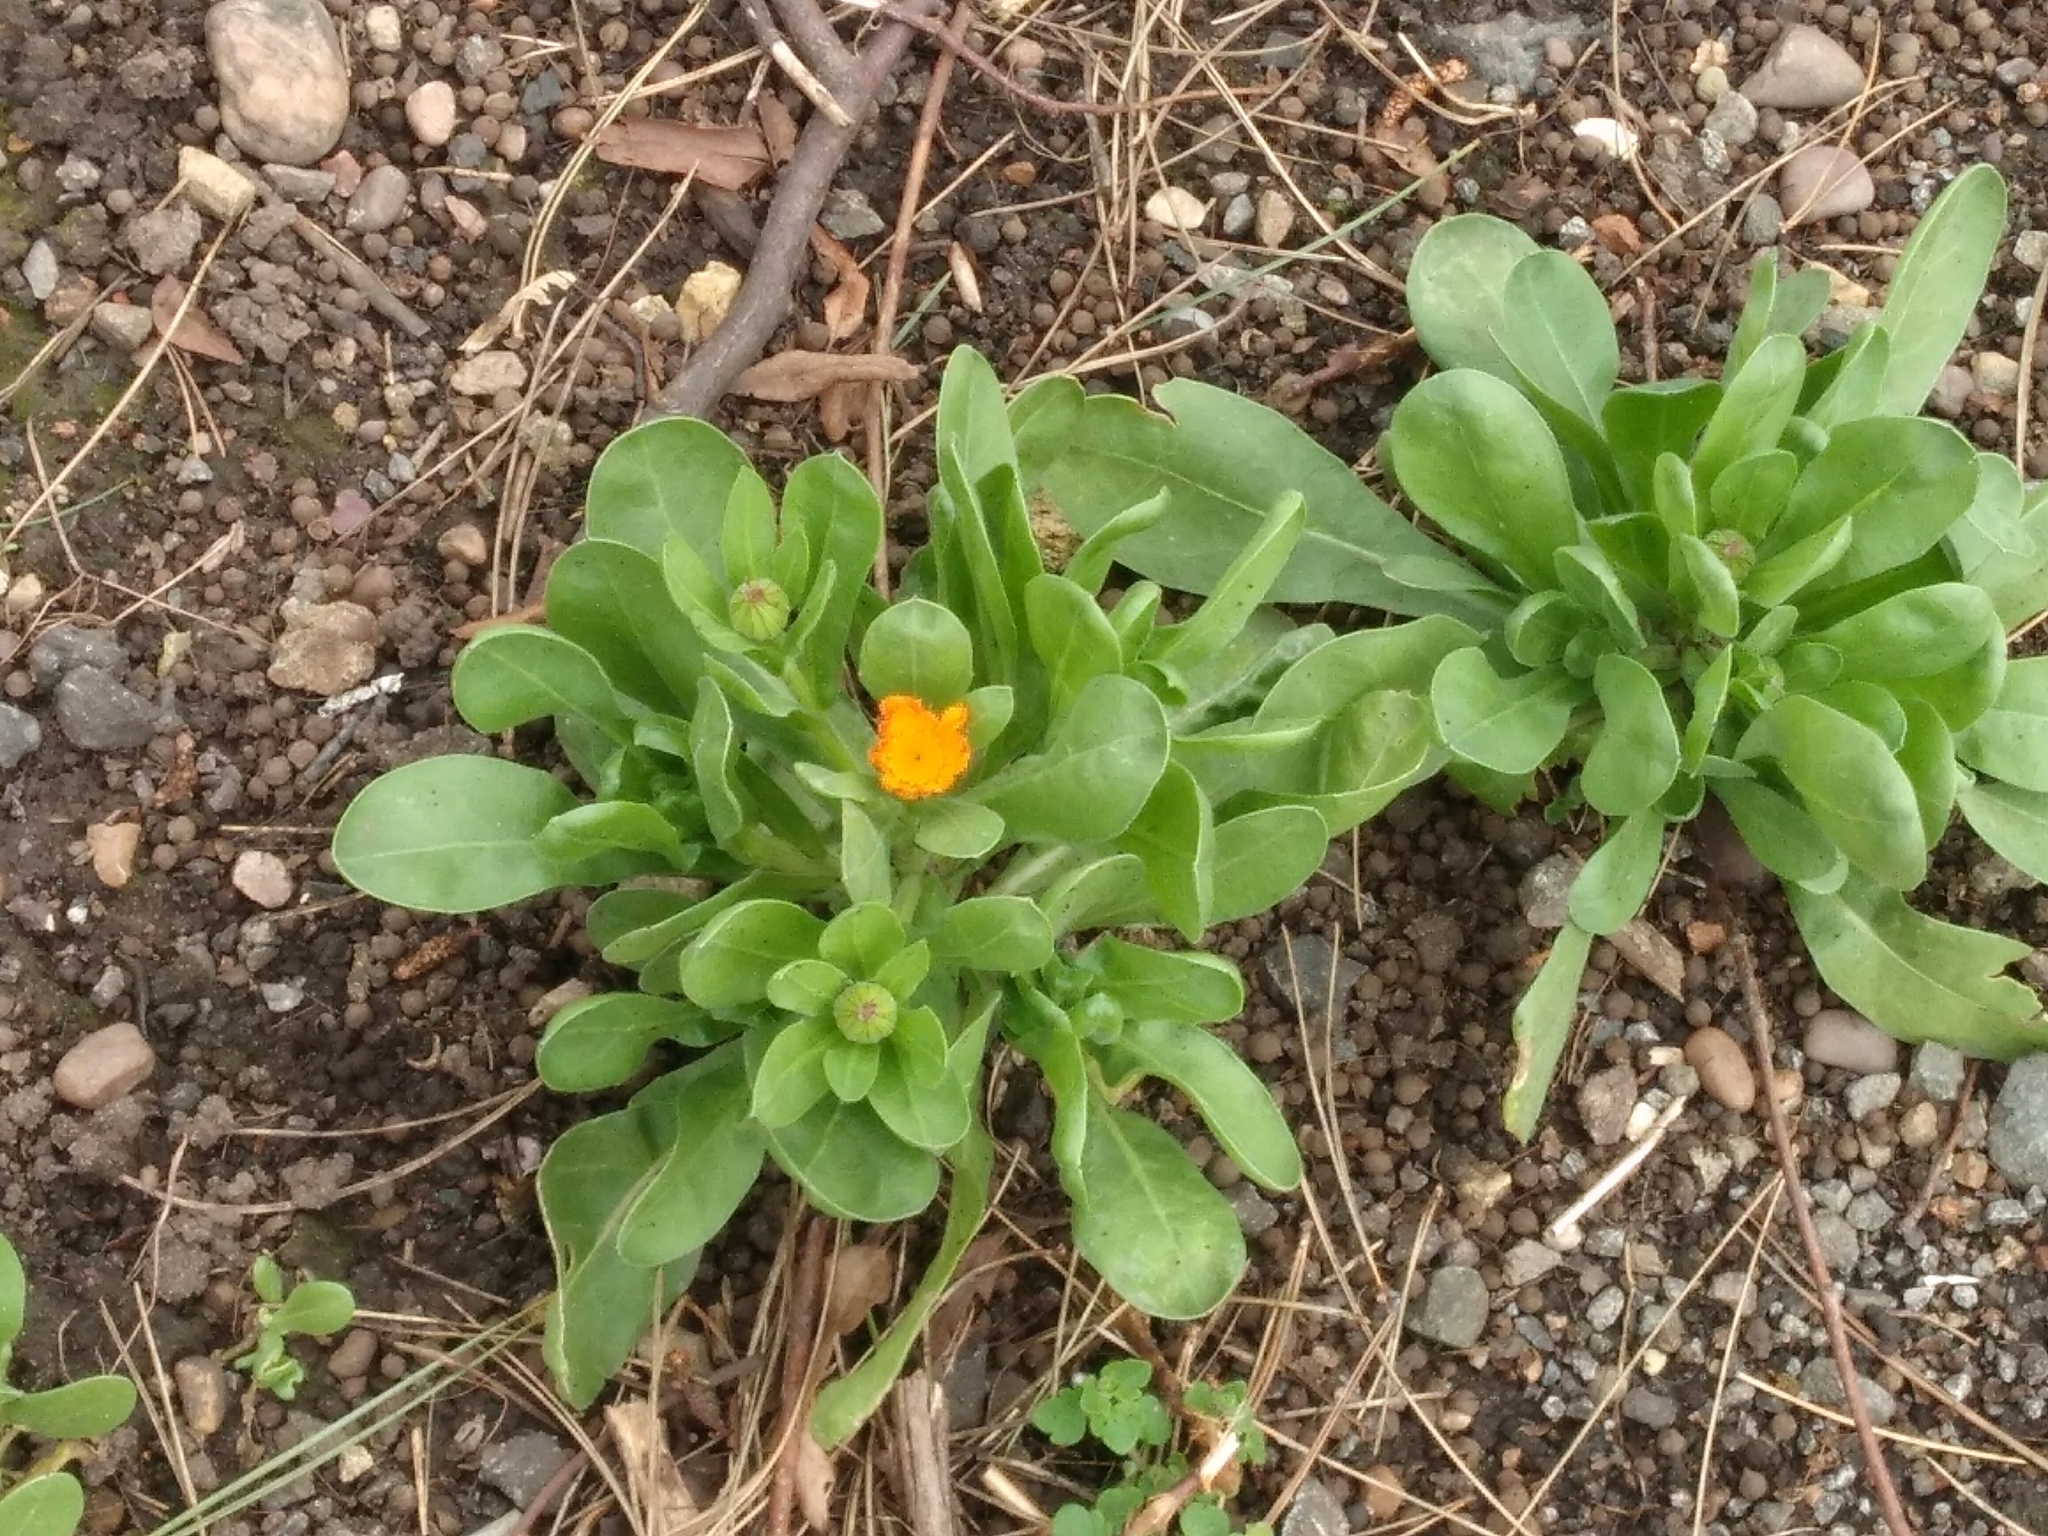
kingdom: Plantae
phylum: Tracheophyta
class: Magnoliopsida
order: Asterales
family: Asteraceae
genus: Calendula
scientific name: Calendula officinalis
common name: Pot marigold
